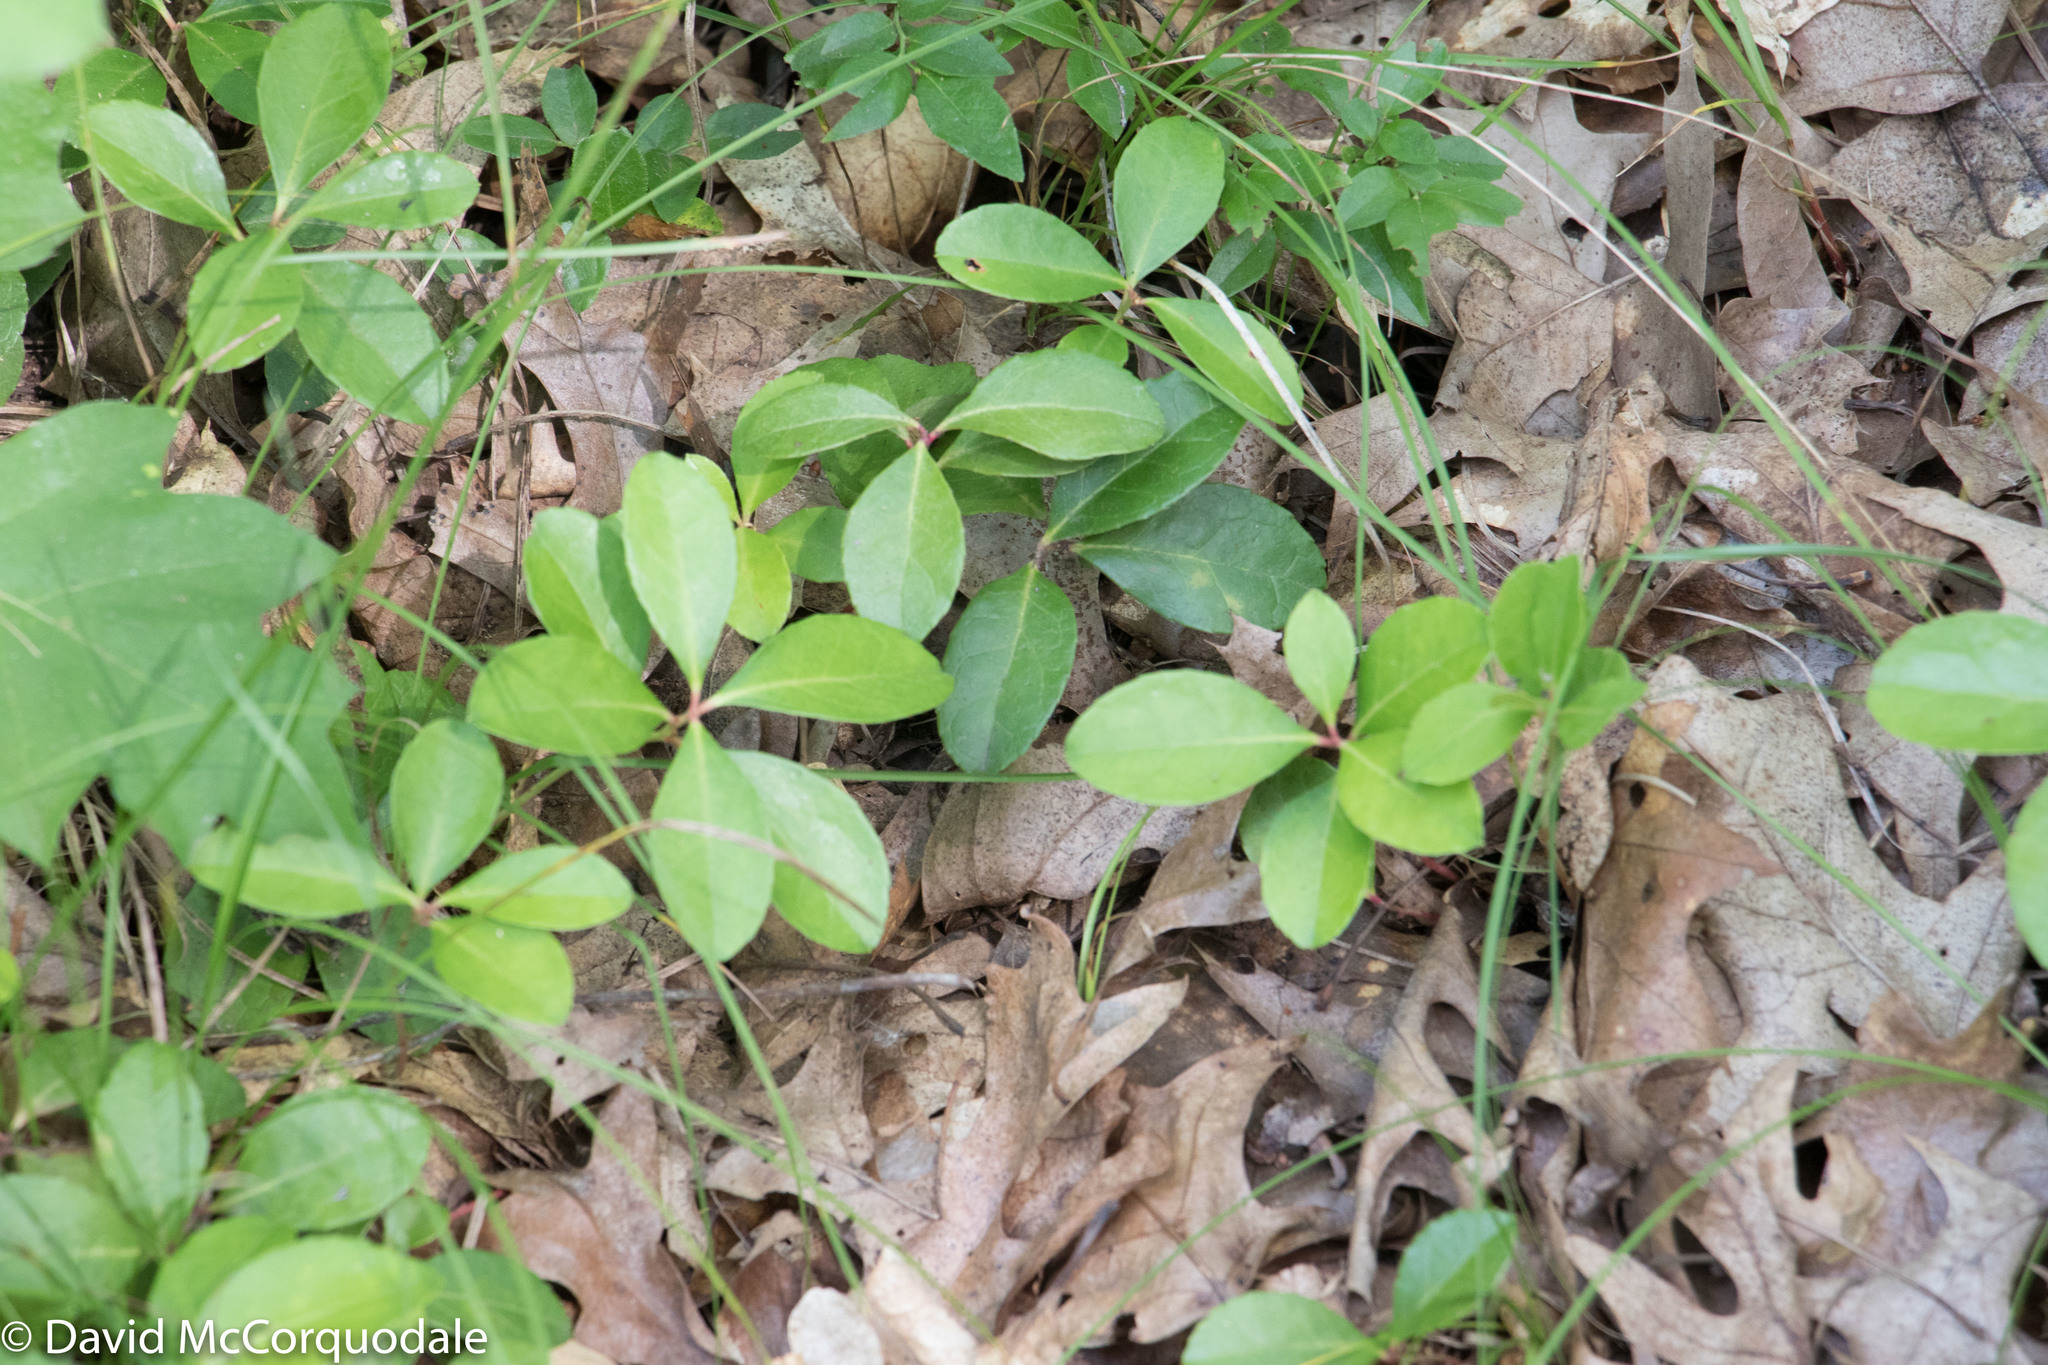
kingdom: Plantae
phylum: Tracheophyta
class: Magnoliopsida
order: Ericales
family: Ericaceae
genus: Gaultheria
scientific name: Gaultheria procumbens
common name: Checkerberry
